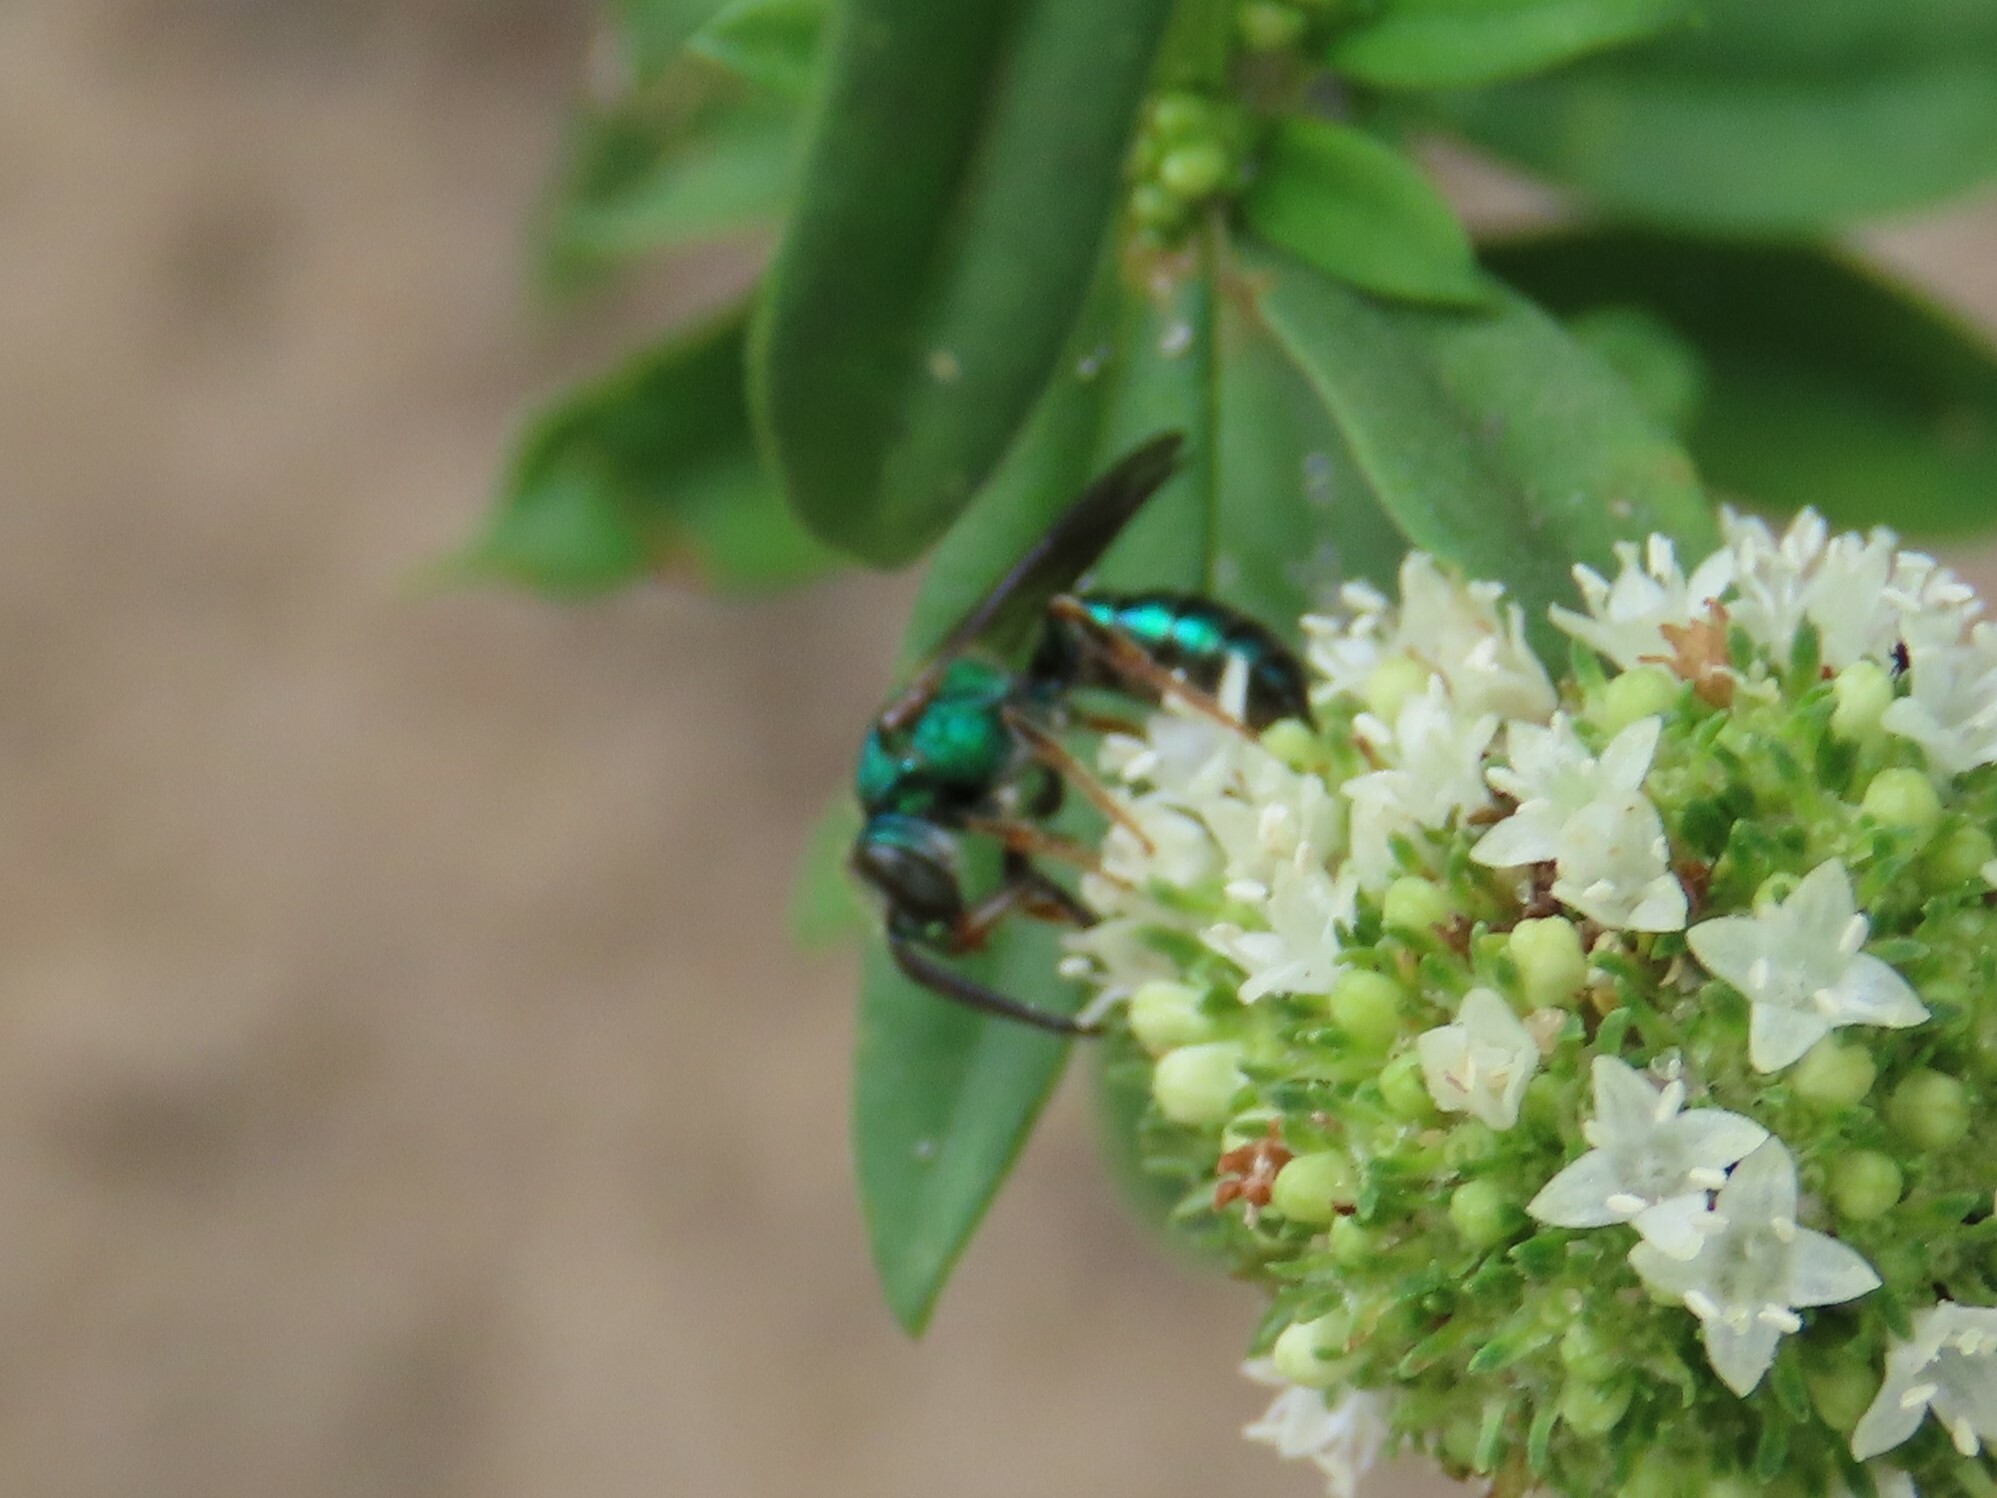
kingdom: Animalia
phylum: Arthropoda
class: Insecta
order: Hymenoptera
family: Halictidae
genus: Augochlora
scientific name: Augochlora pura
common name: Pure green sweat bee
